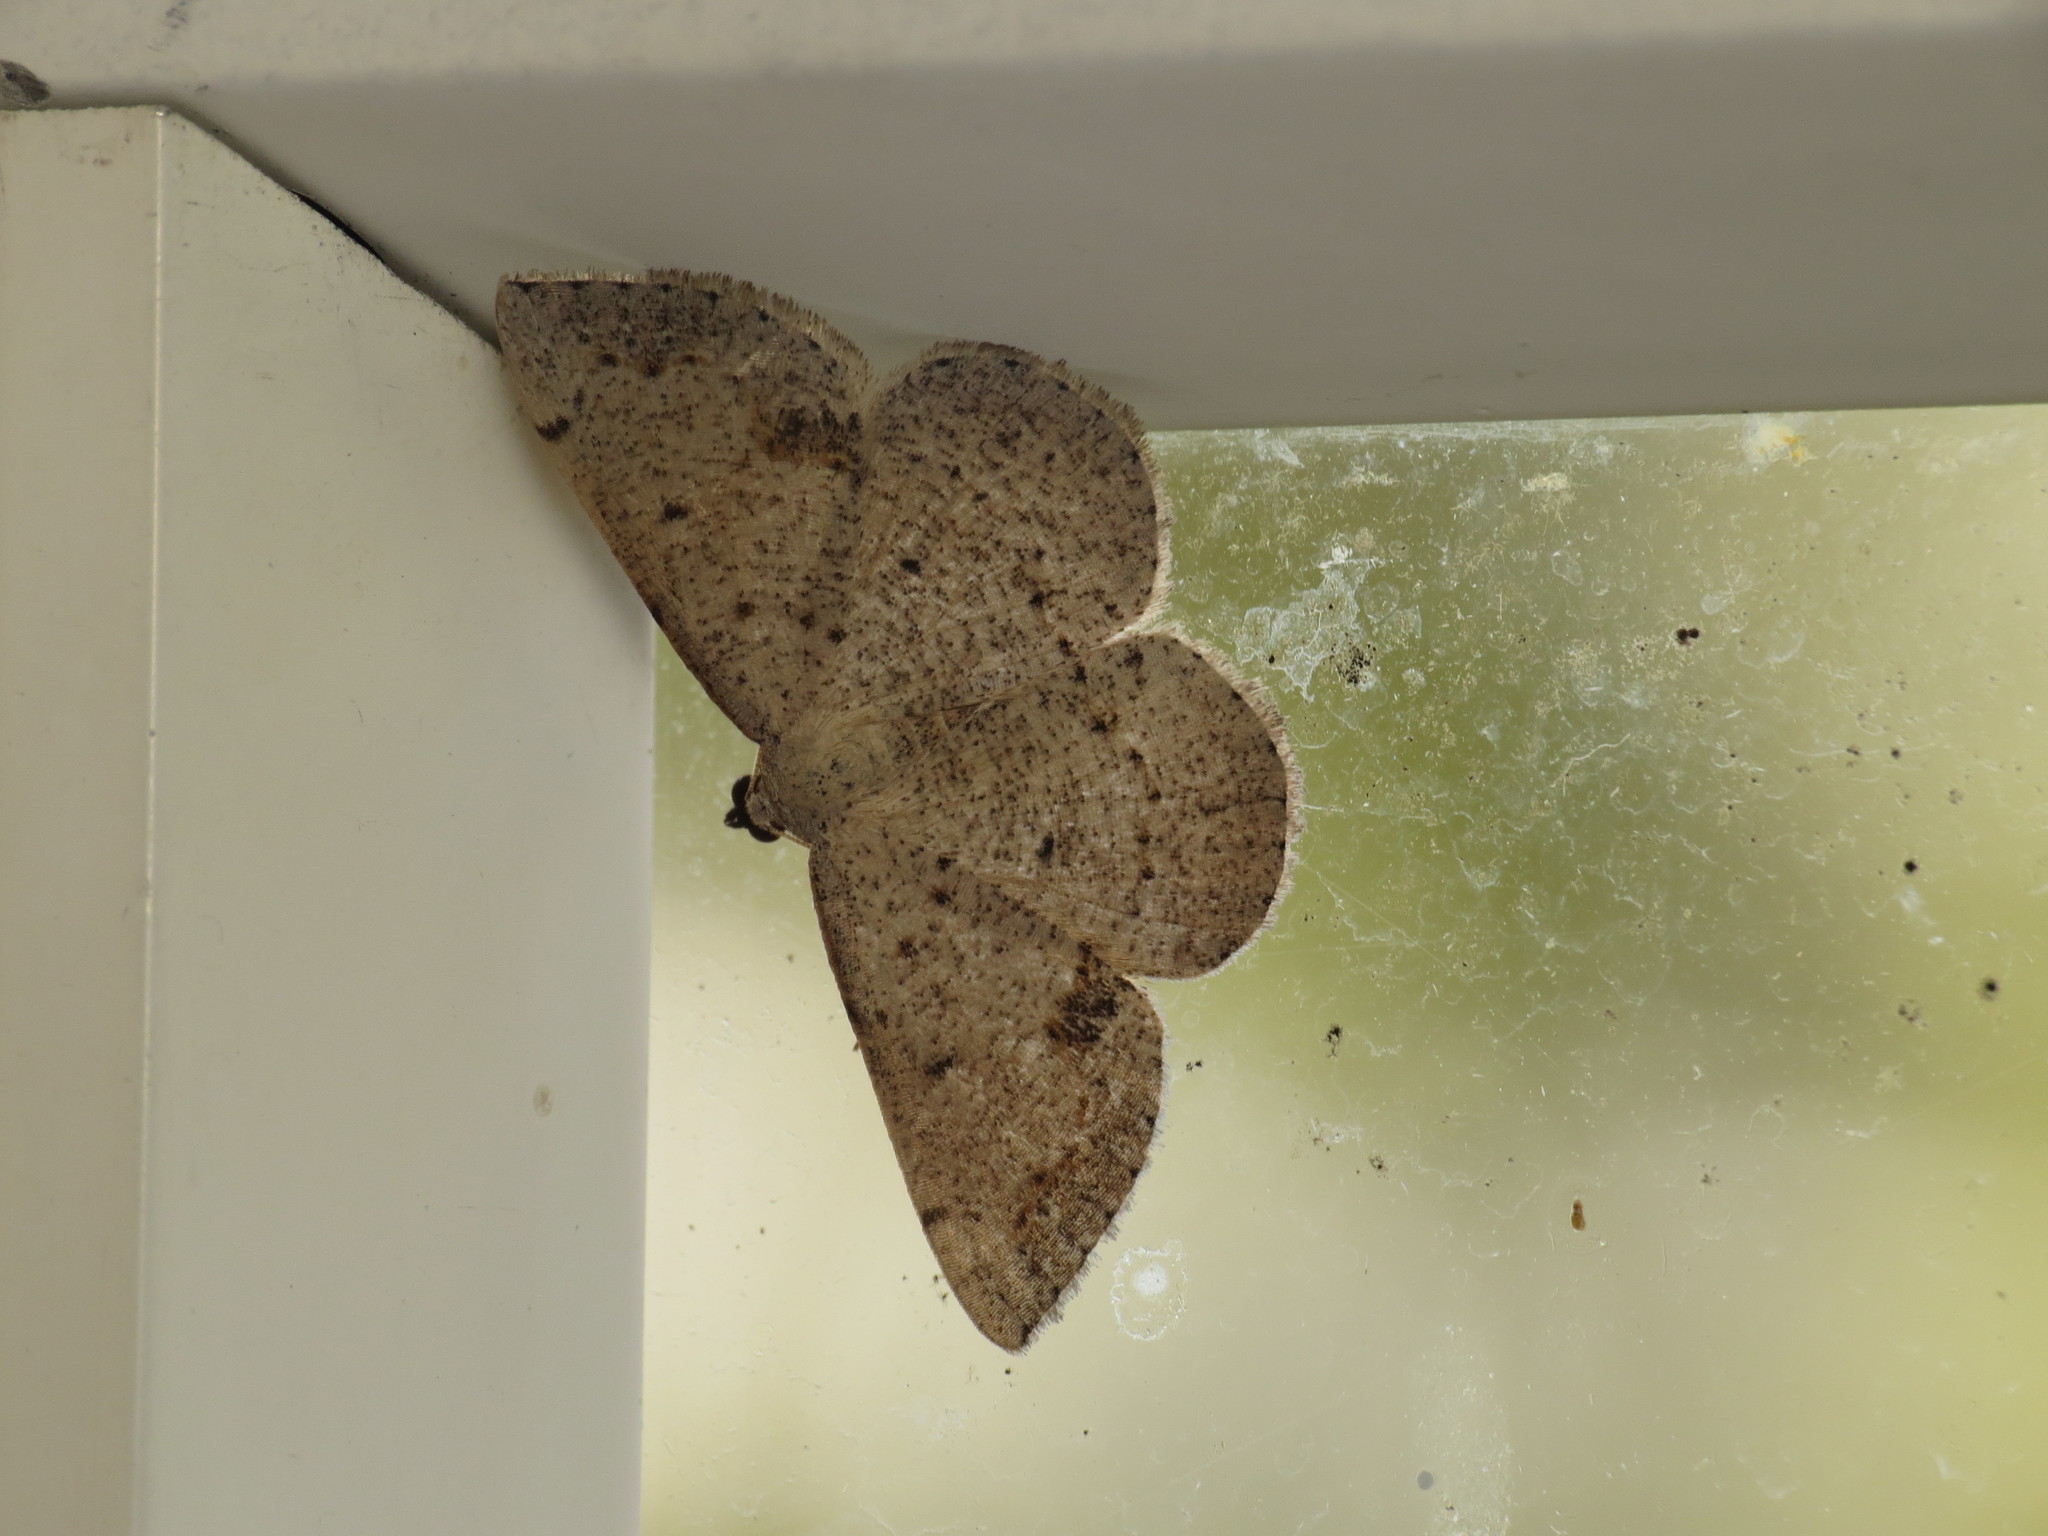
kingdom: Animalia
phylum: Arthropoda
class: Insecta
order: Lepidoptera
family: Geometridae
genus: Taxeotis
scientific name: Taxeotis intextata
